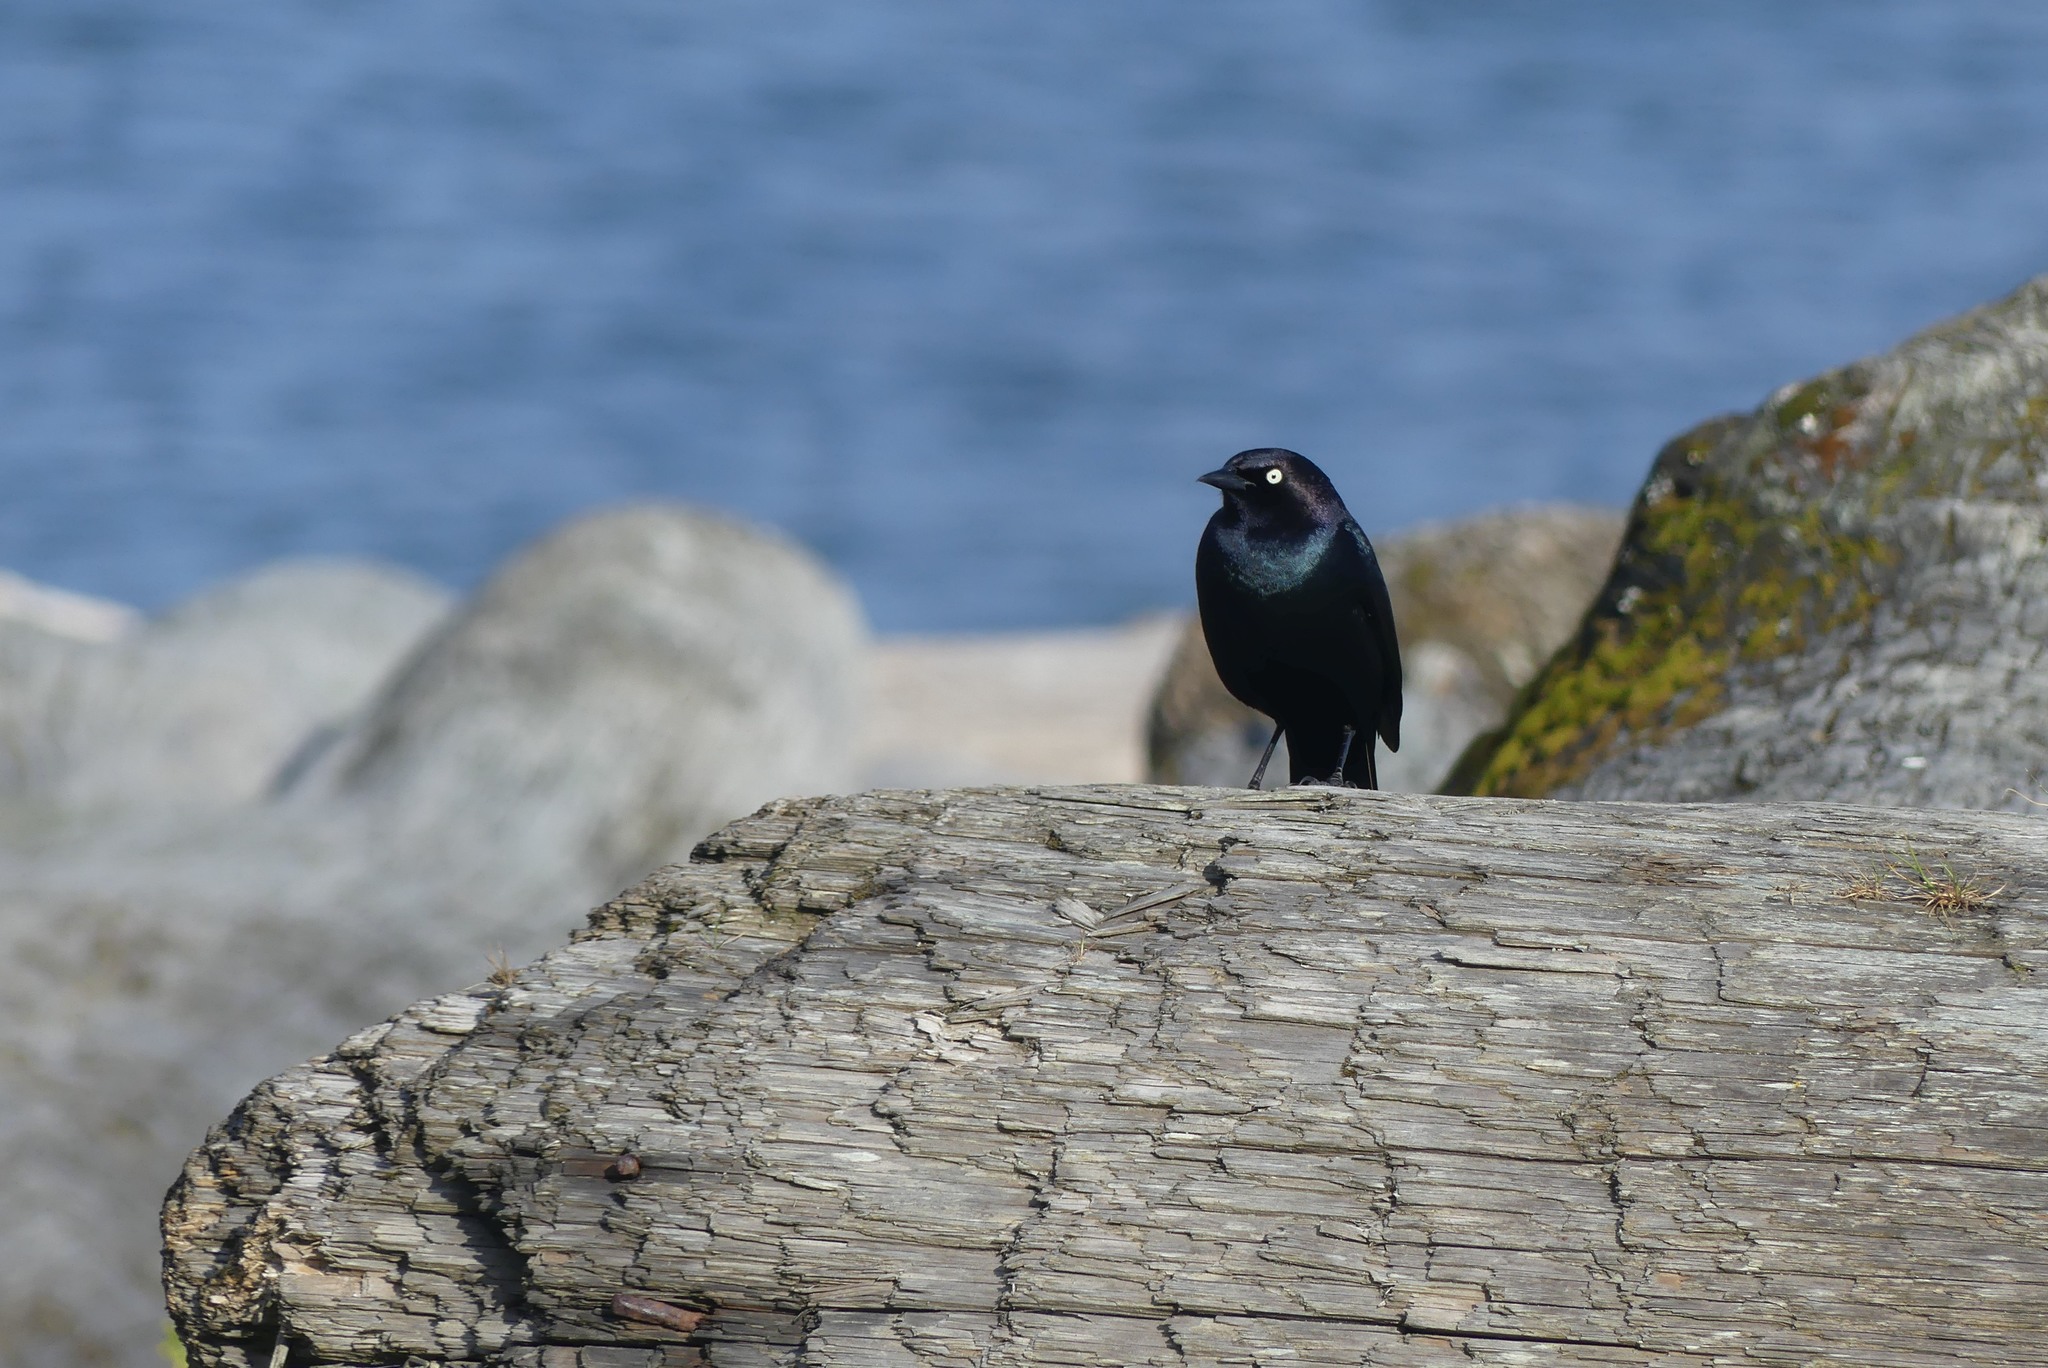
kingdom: Animalia
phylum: Chordata
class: Aves
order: Passeriformes
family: Icteridae
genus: Euphagus
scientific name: Euphagus cyanocephalus
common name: Brewer's blackbird
